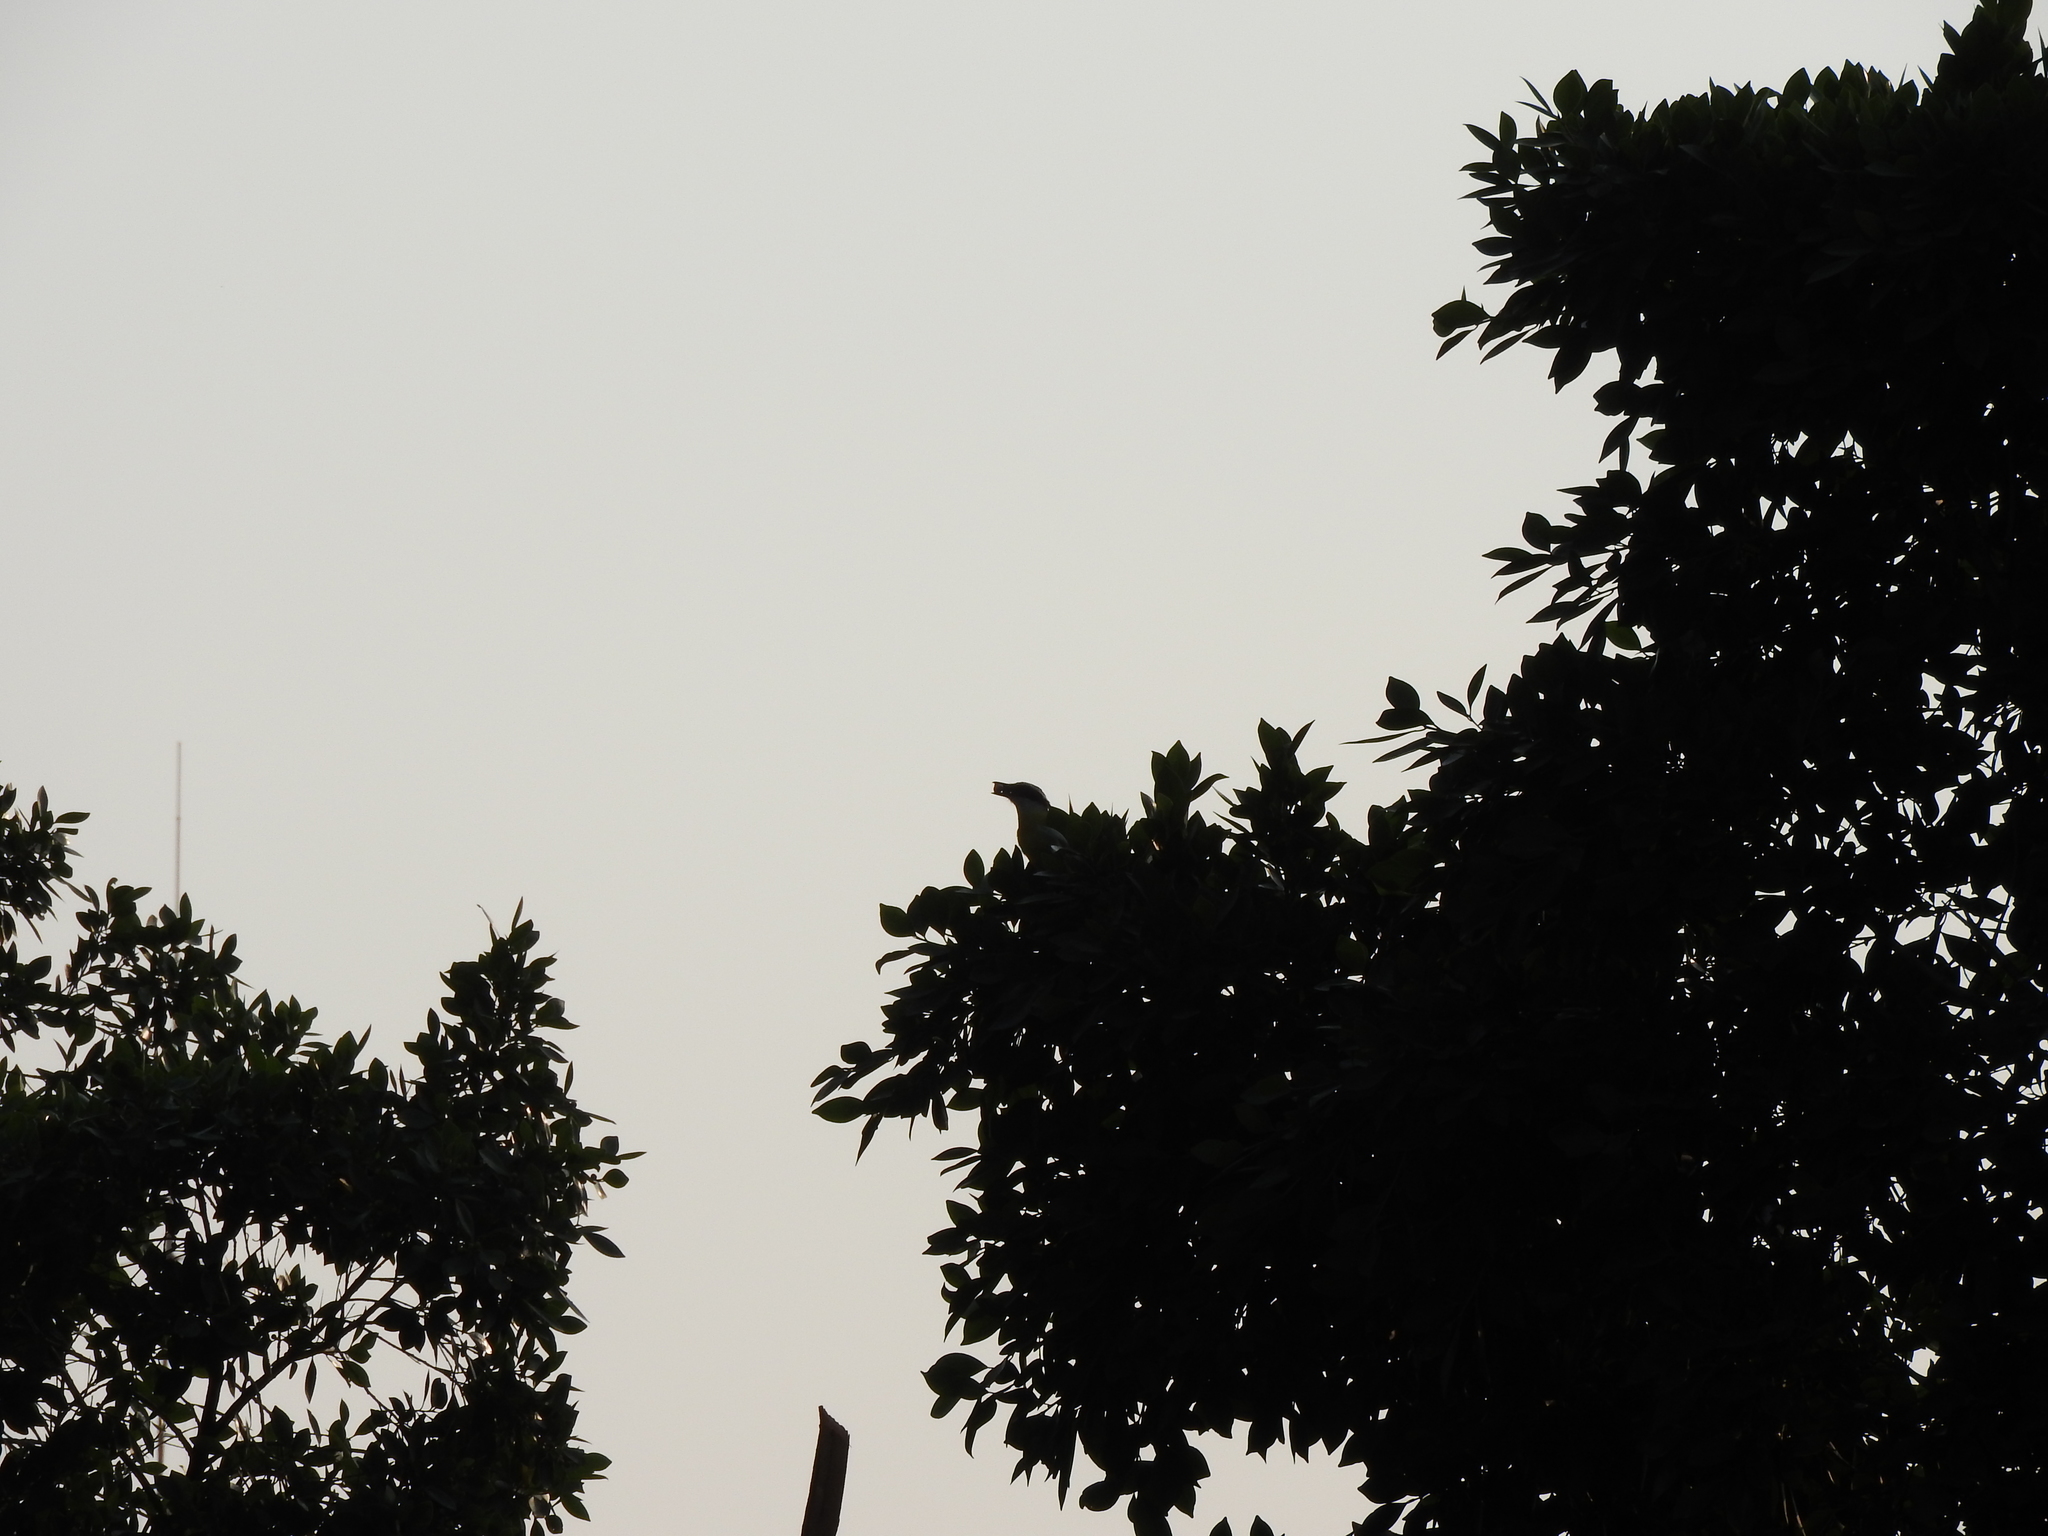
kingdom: Animalia
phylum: Chordata
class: Aves
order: Passeriformes
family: Tyrannidae
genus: Pitangus
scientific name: Pitangus sulphuratus
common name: Great kiskadee
